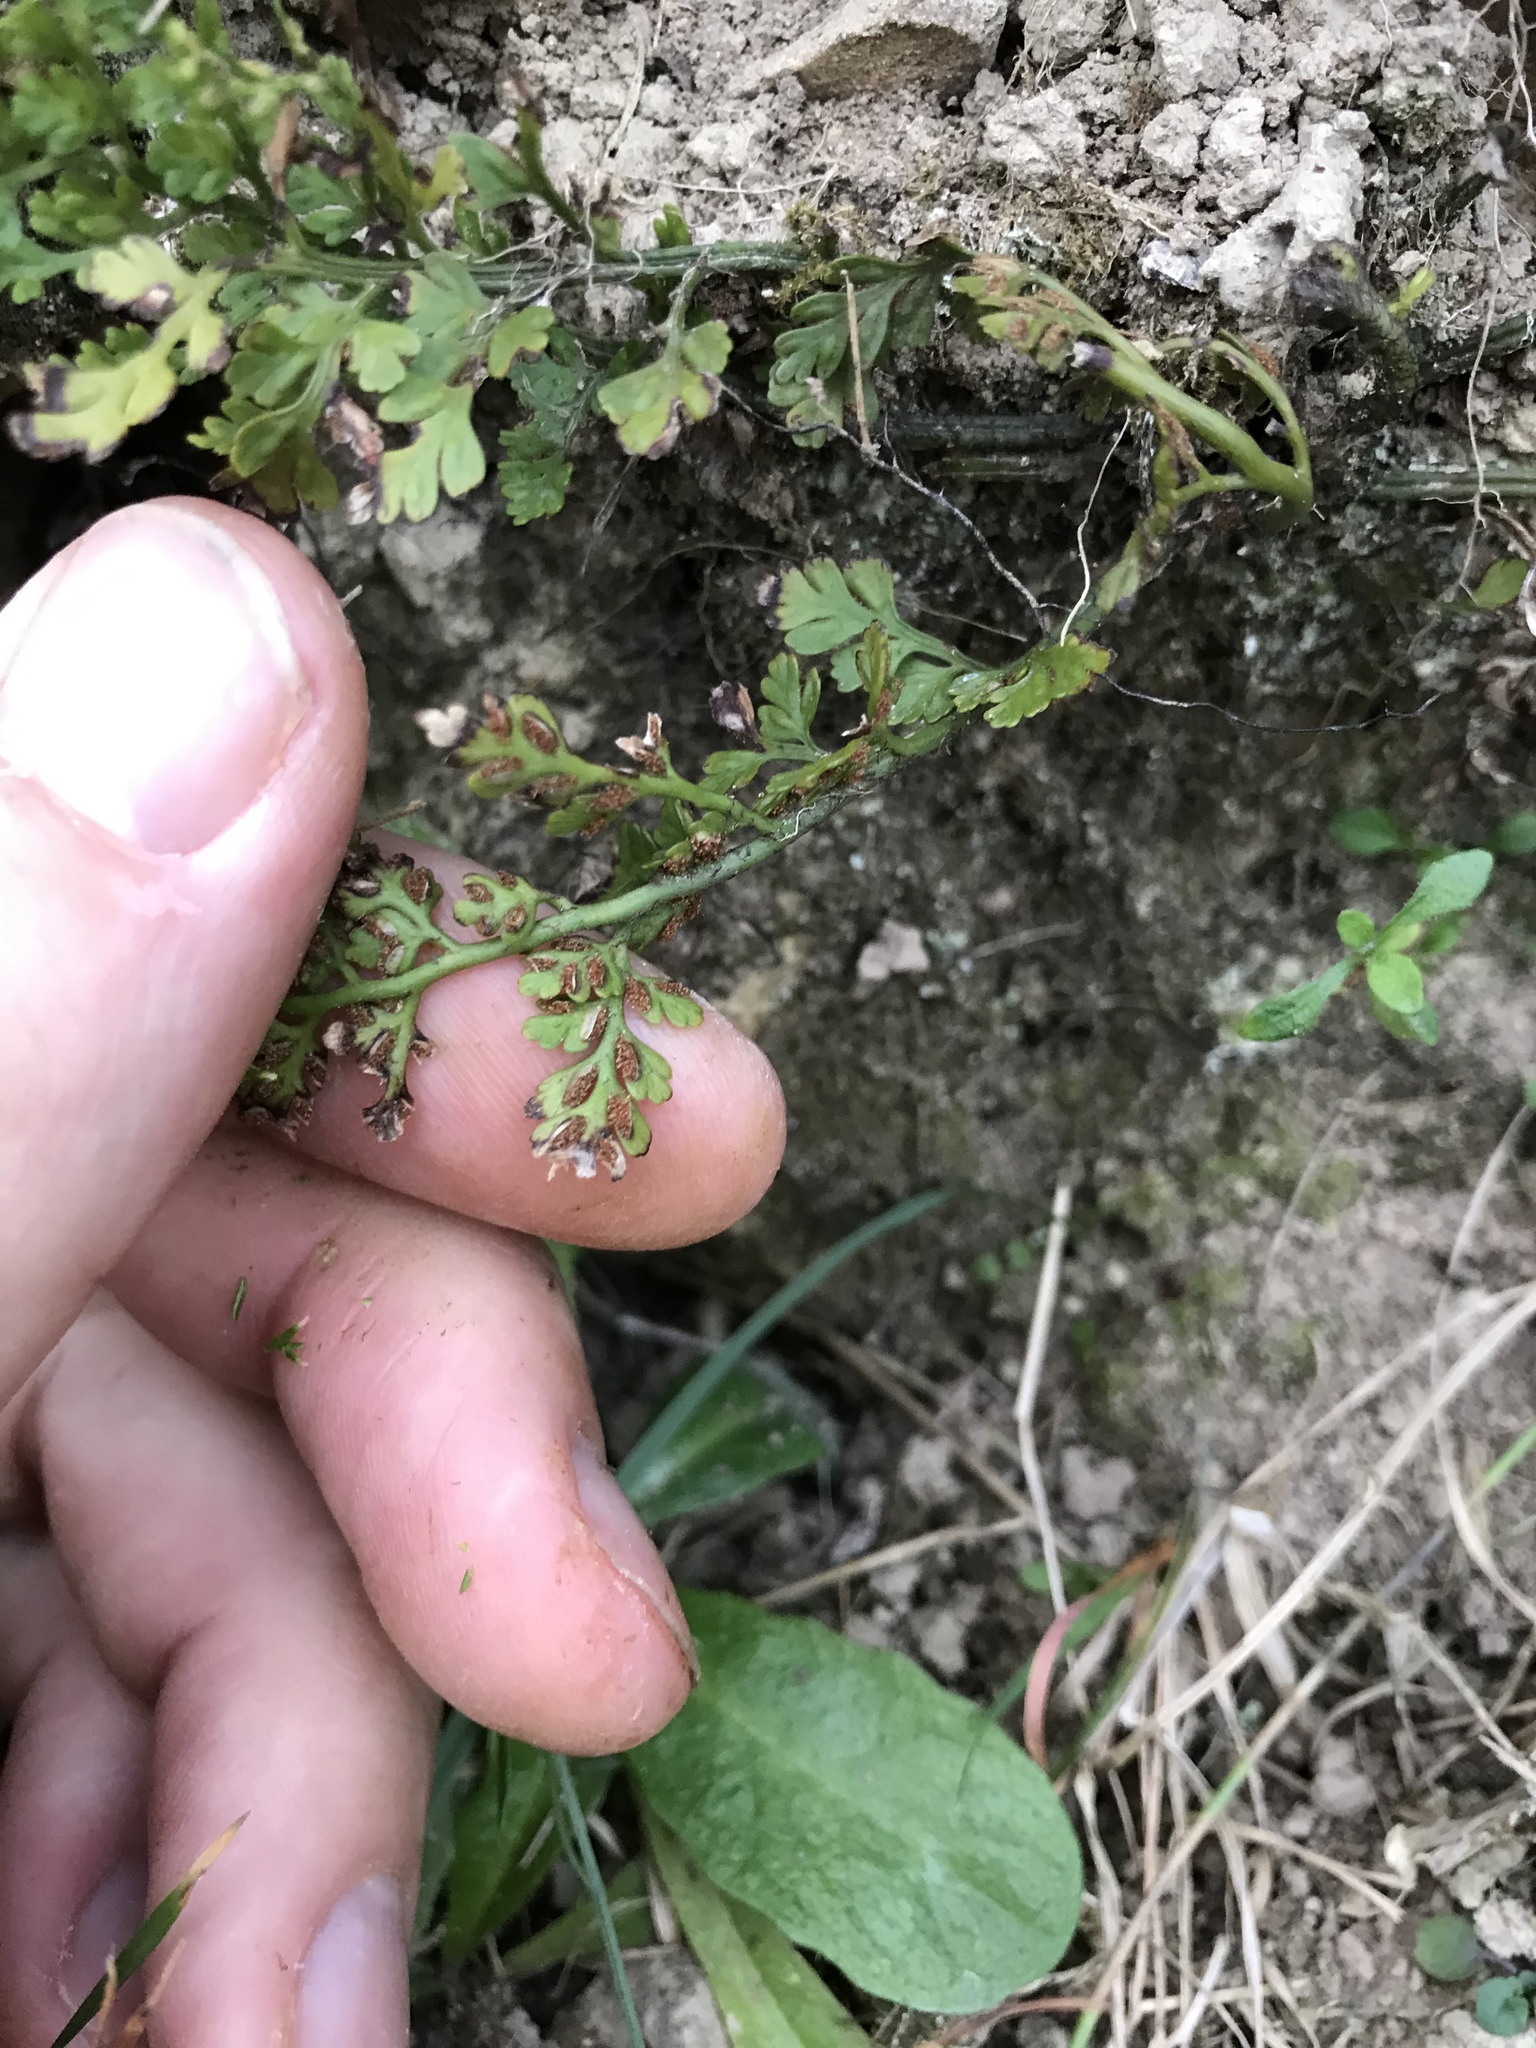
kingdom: Plantae
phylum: Tracheophyta
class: Polypodiopsida
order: Polypodiales
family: Aspleniaceae
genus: Asplenium
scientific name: Asplenium hookerianum
